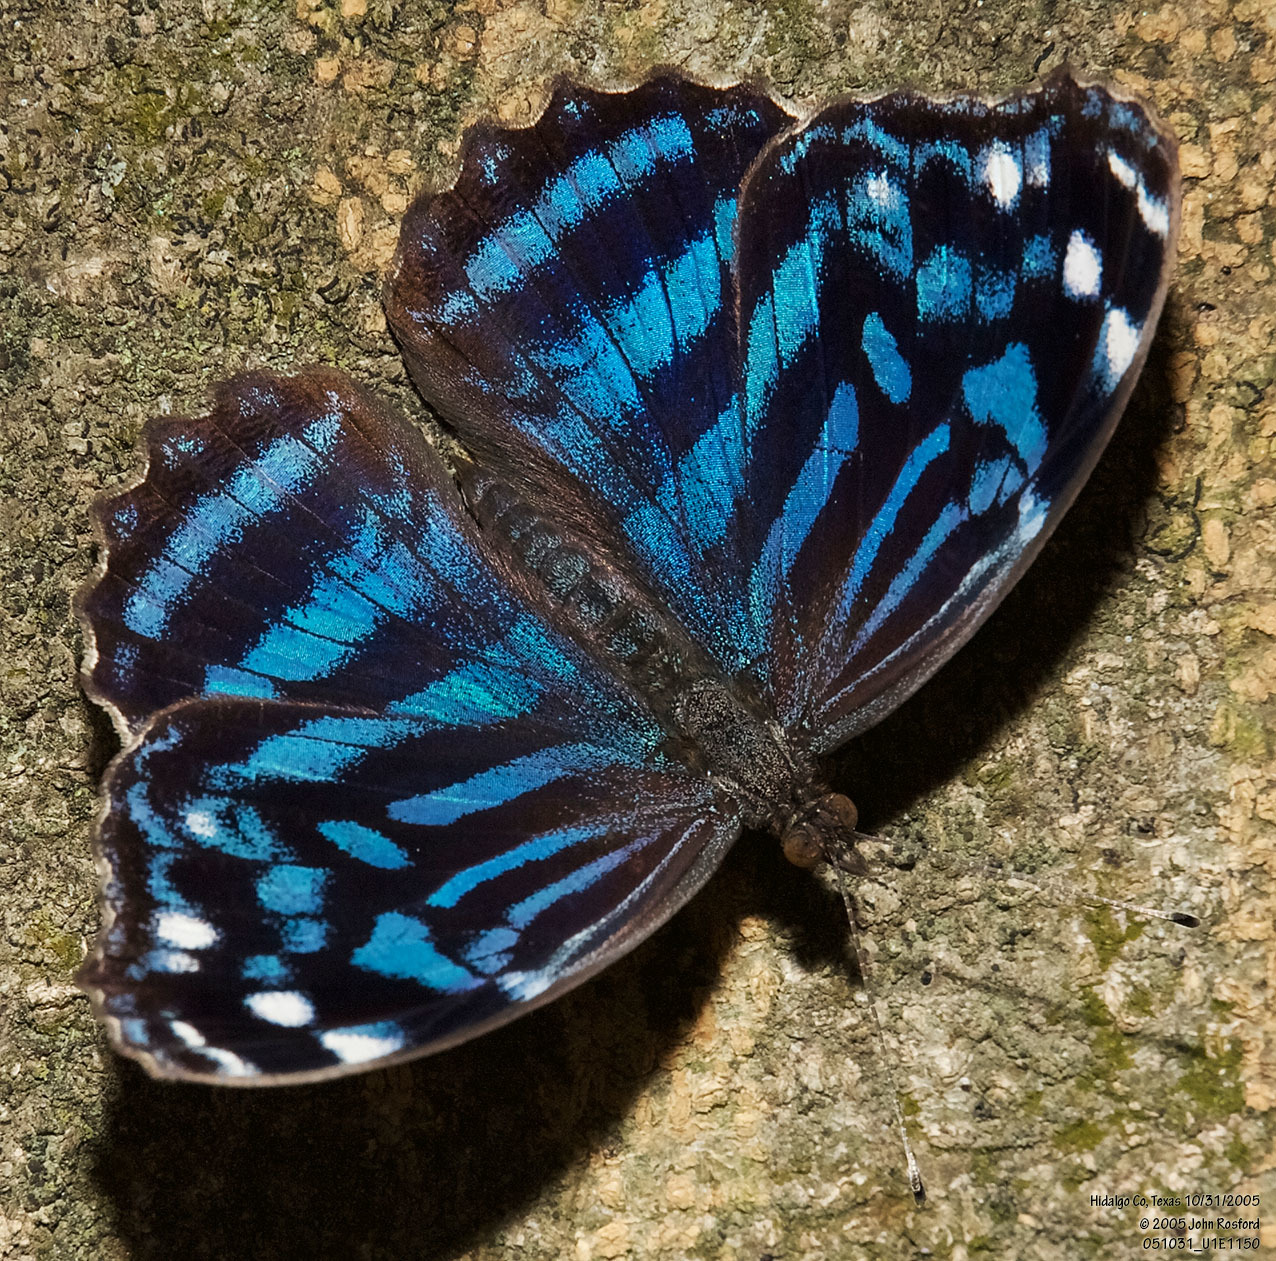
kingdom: Animalia
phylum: Arthropoda
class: Insecta
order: Lepidoptera
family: Nymphalidae
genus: Myscelia
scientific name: Myscelia ethusa
